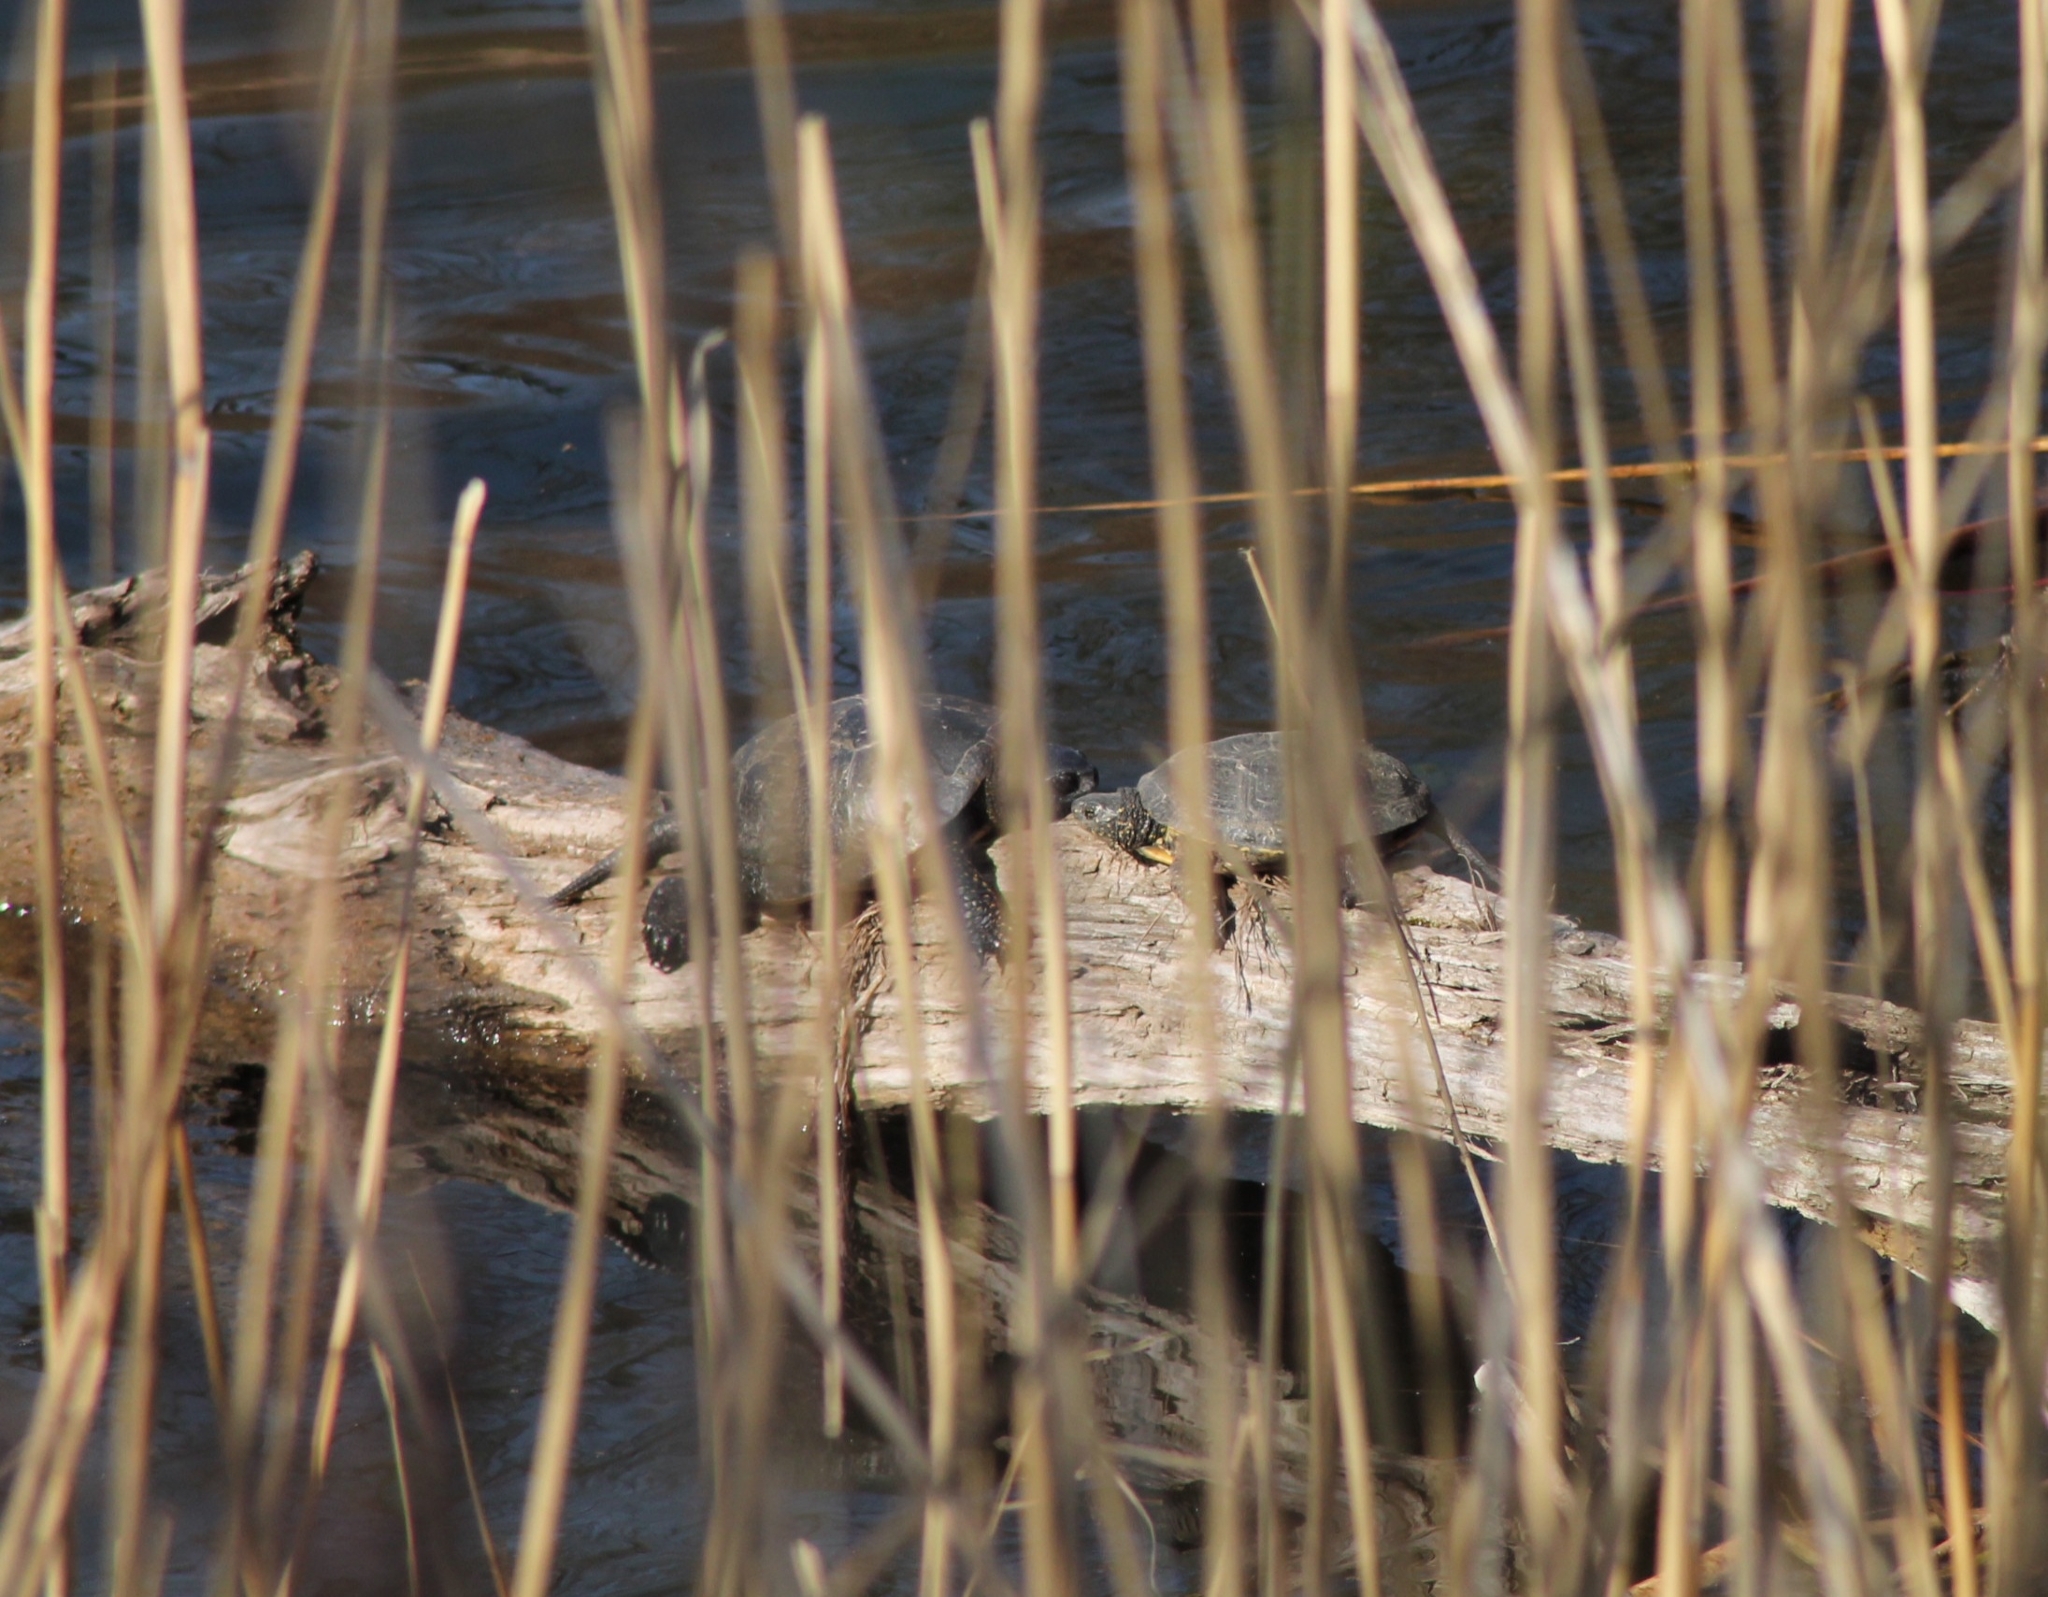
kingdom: Animalia
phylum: Chordata
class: Testudines
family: Emydidae
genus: Emys
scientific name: Emys orbicularis
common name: European pond turtle
